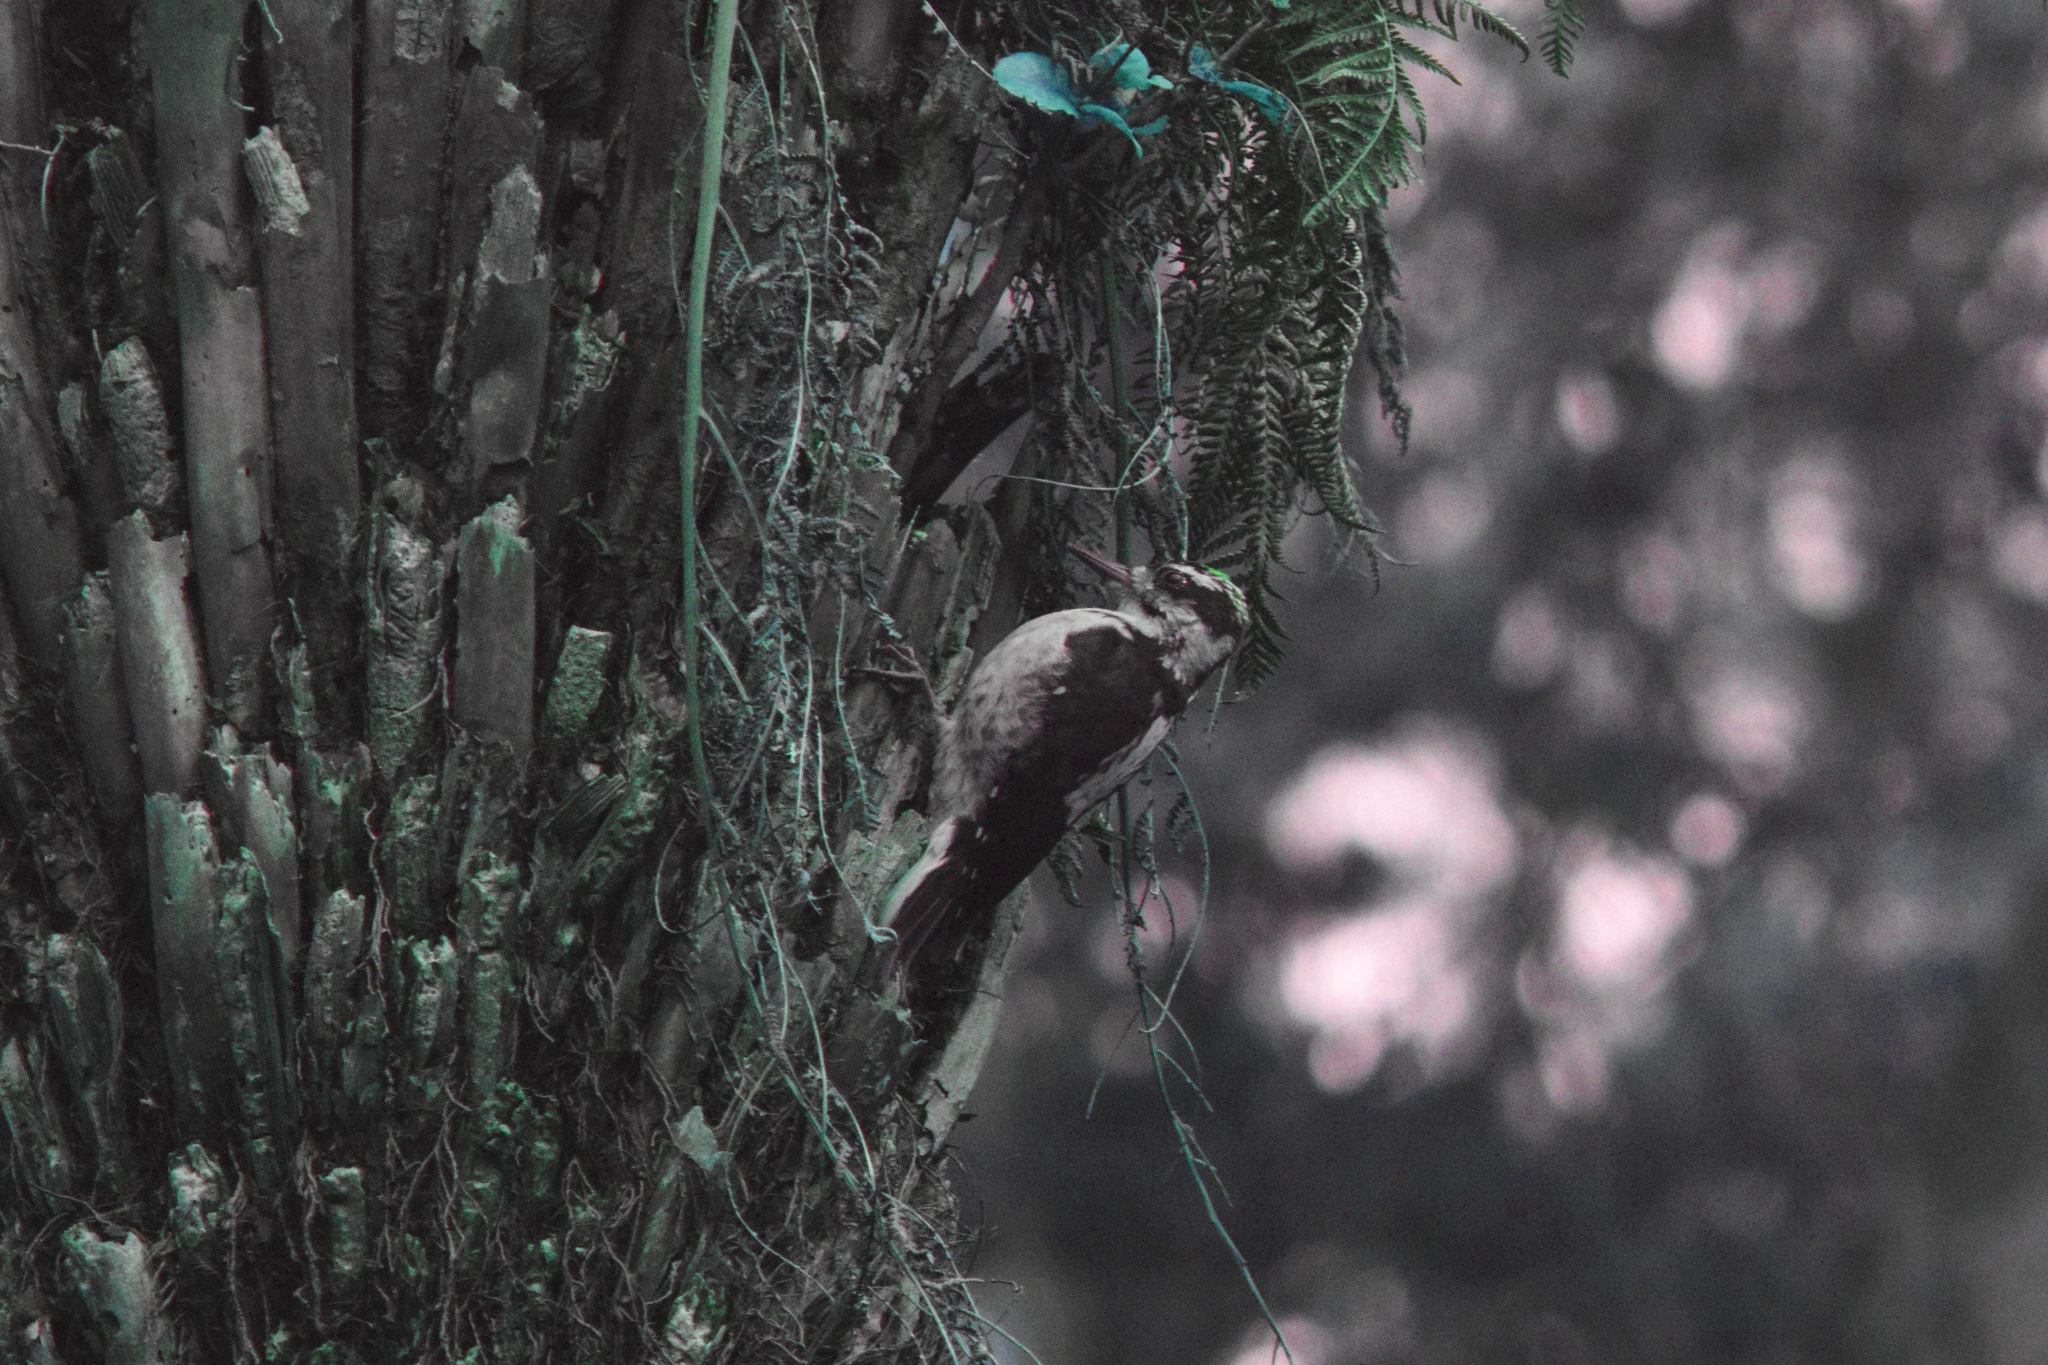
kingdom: Animalia
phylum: Chordata
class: Aves
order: Piciformes
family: Picidae
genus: Leuconotopicus
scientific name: Leuconotopicus villosus
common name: Hairy woodpecker
